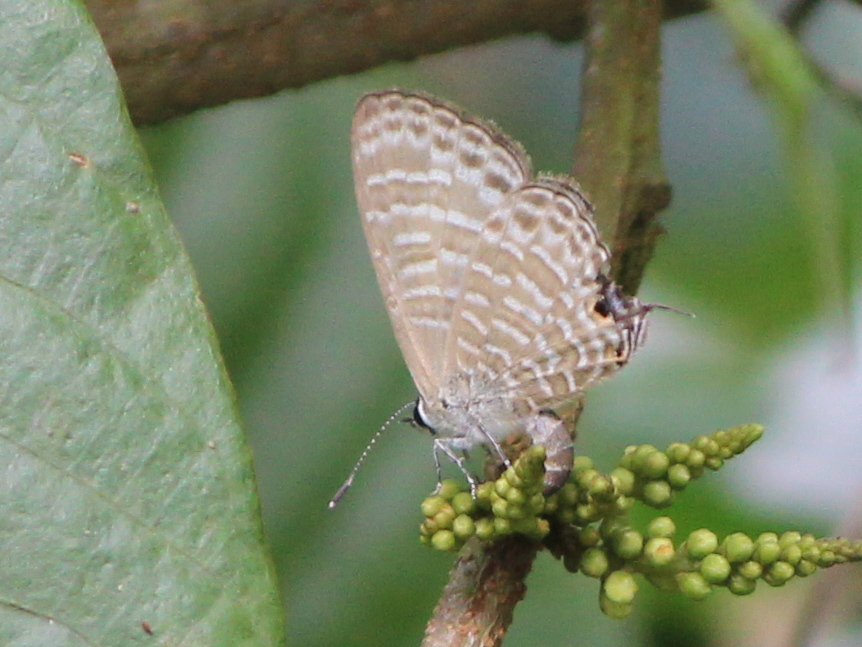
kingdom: Animalia
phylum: Arthropoda
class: Insecta
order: Lepidoptera
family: Lycaenidae
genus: Nacaduba
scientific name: Nacaduba kurava
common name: Transparent 6-line blue
